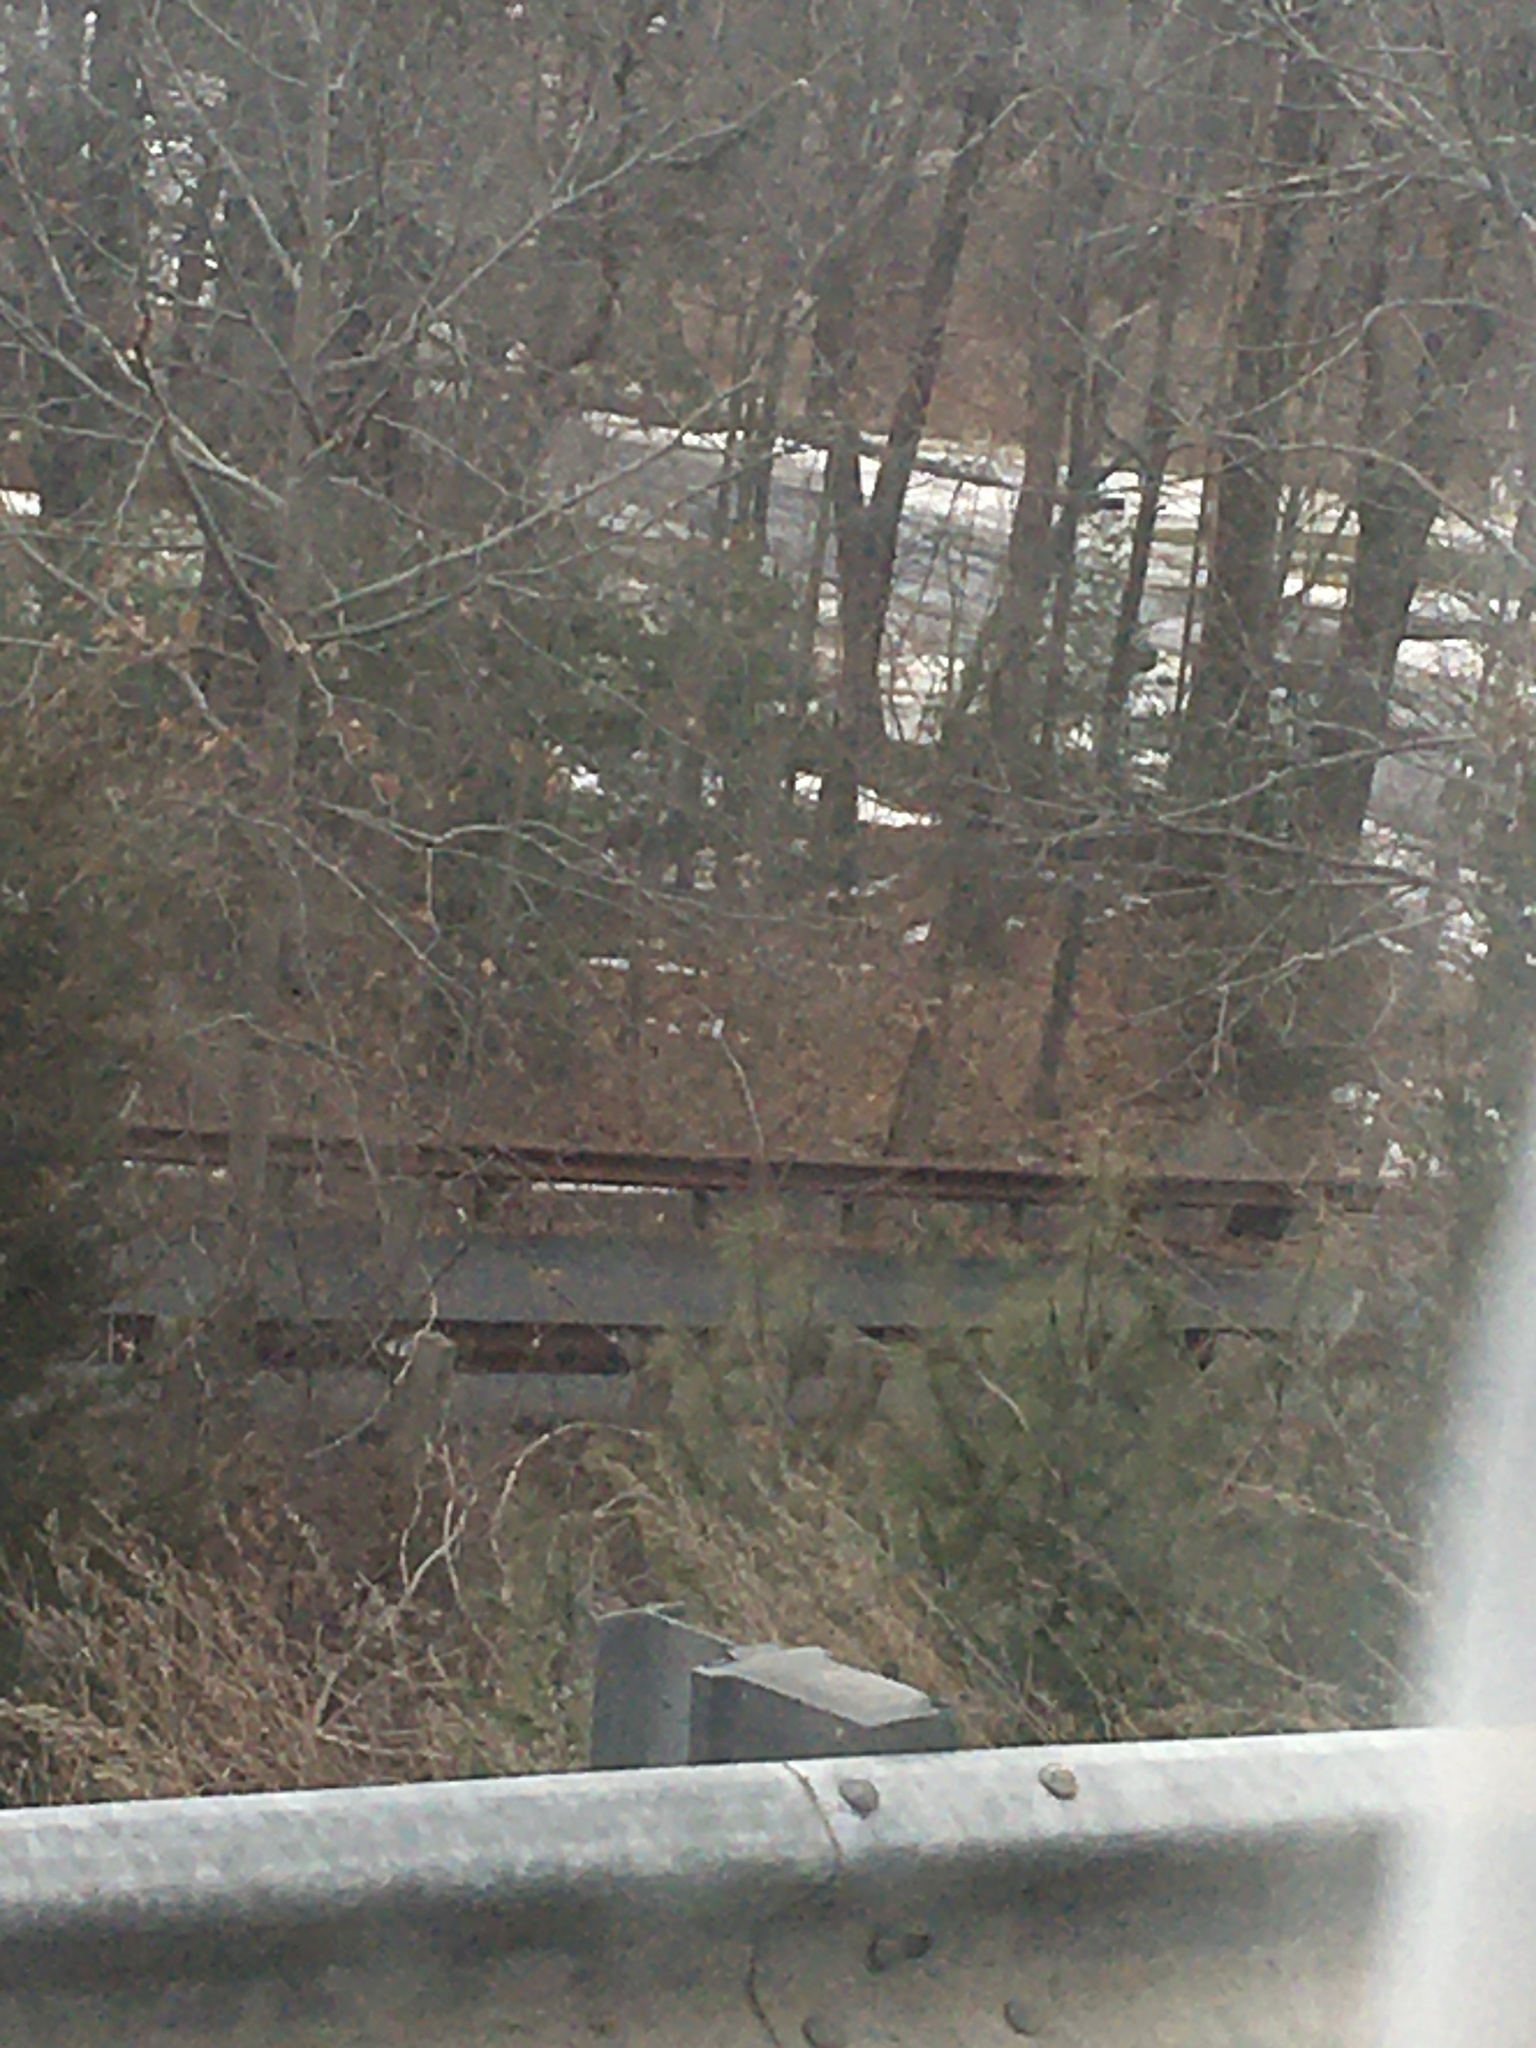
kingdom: Plantae
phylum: Tracheophyta
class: Pinopsida
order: Pinales
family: Pinaceae
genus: Pinus
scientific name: Pinus strobus
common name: Weymouth pine
